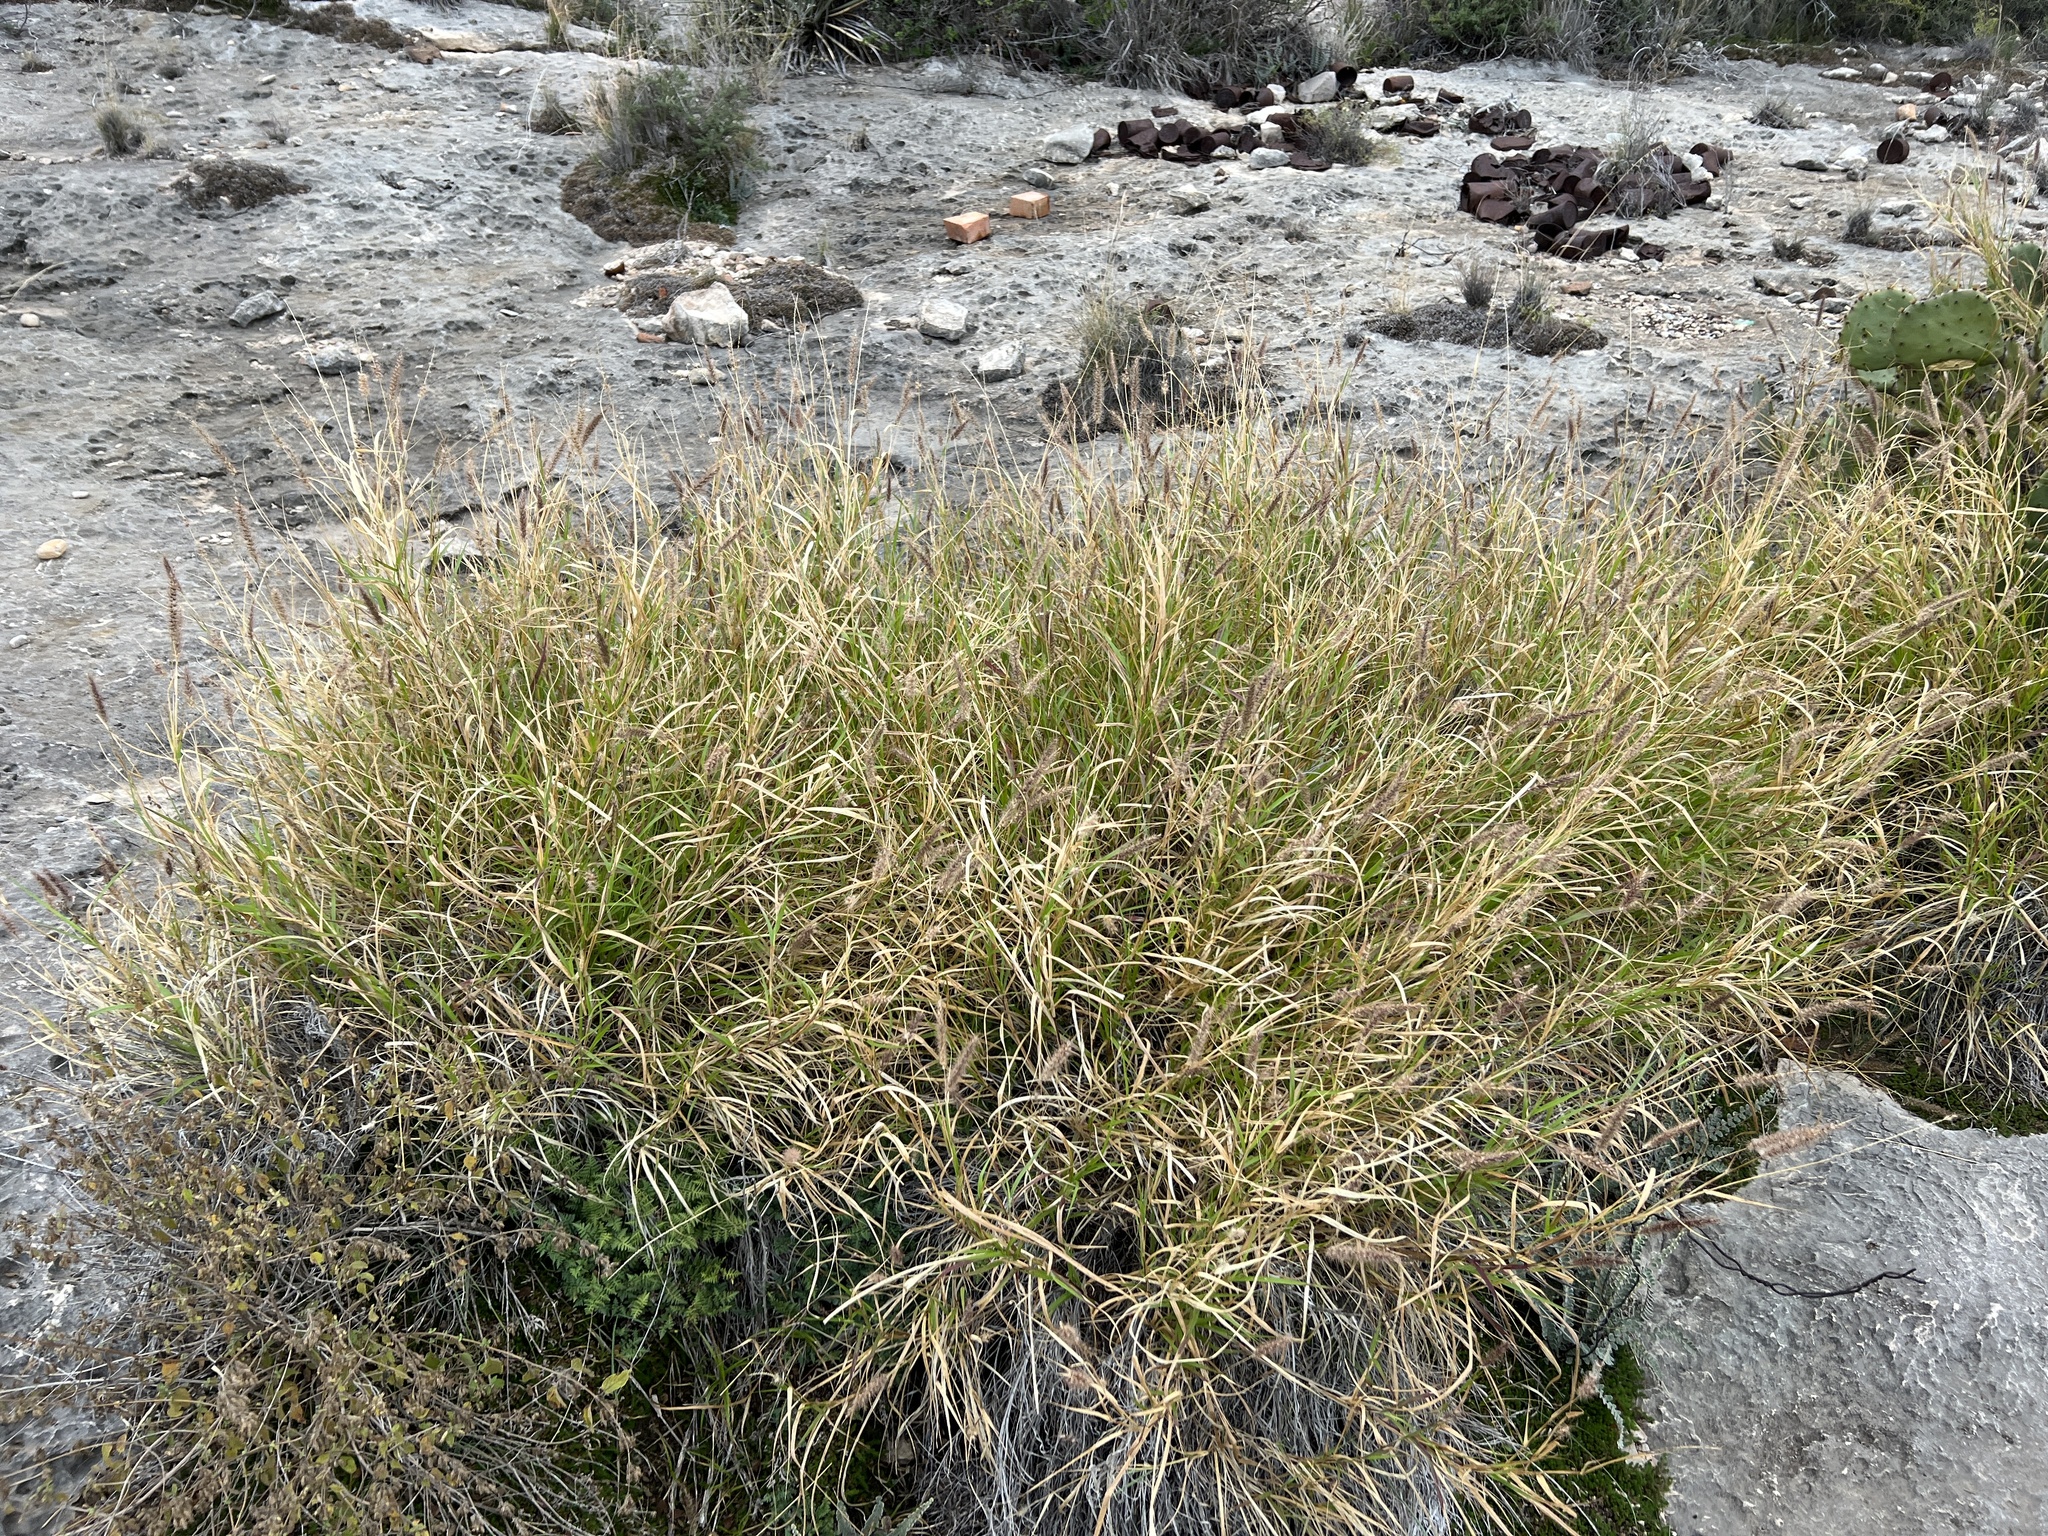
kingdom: Plantae
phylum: Tracheophyta
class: Liliopsida
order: Poales
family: Poaceae
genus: Cenchrus
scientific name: Cenchrus ciliaris
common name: Buffelgrass
